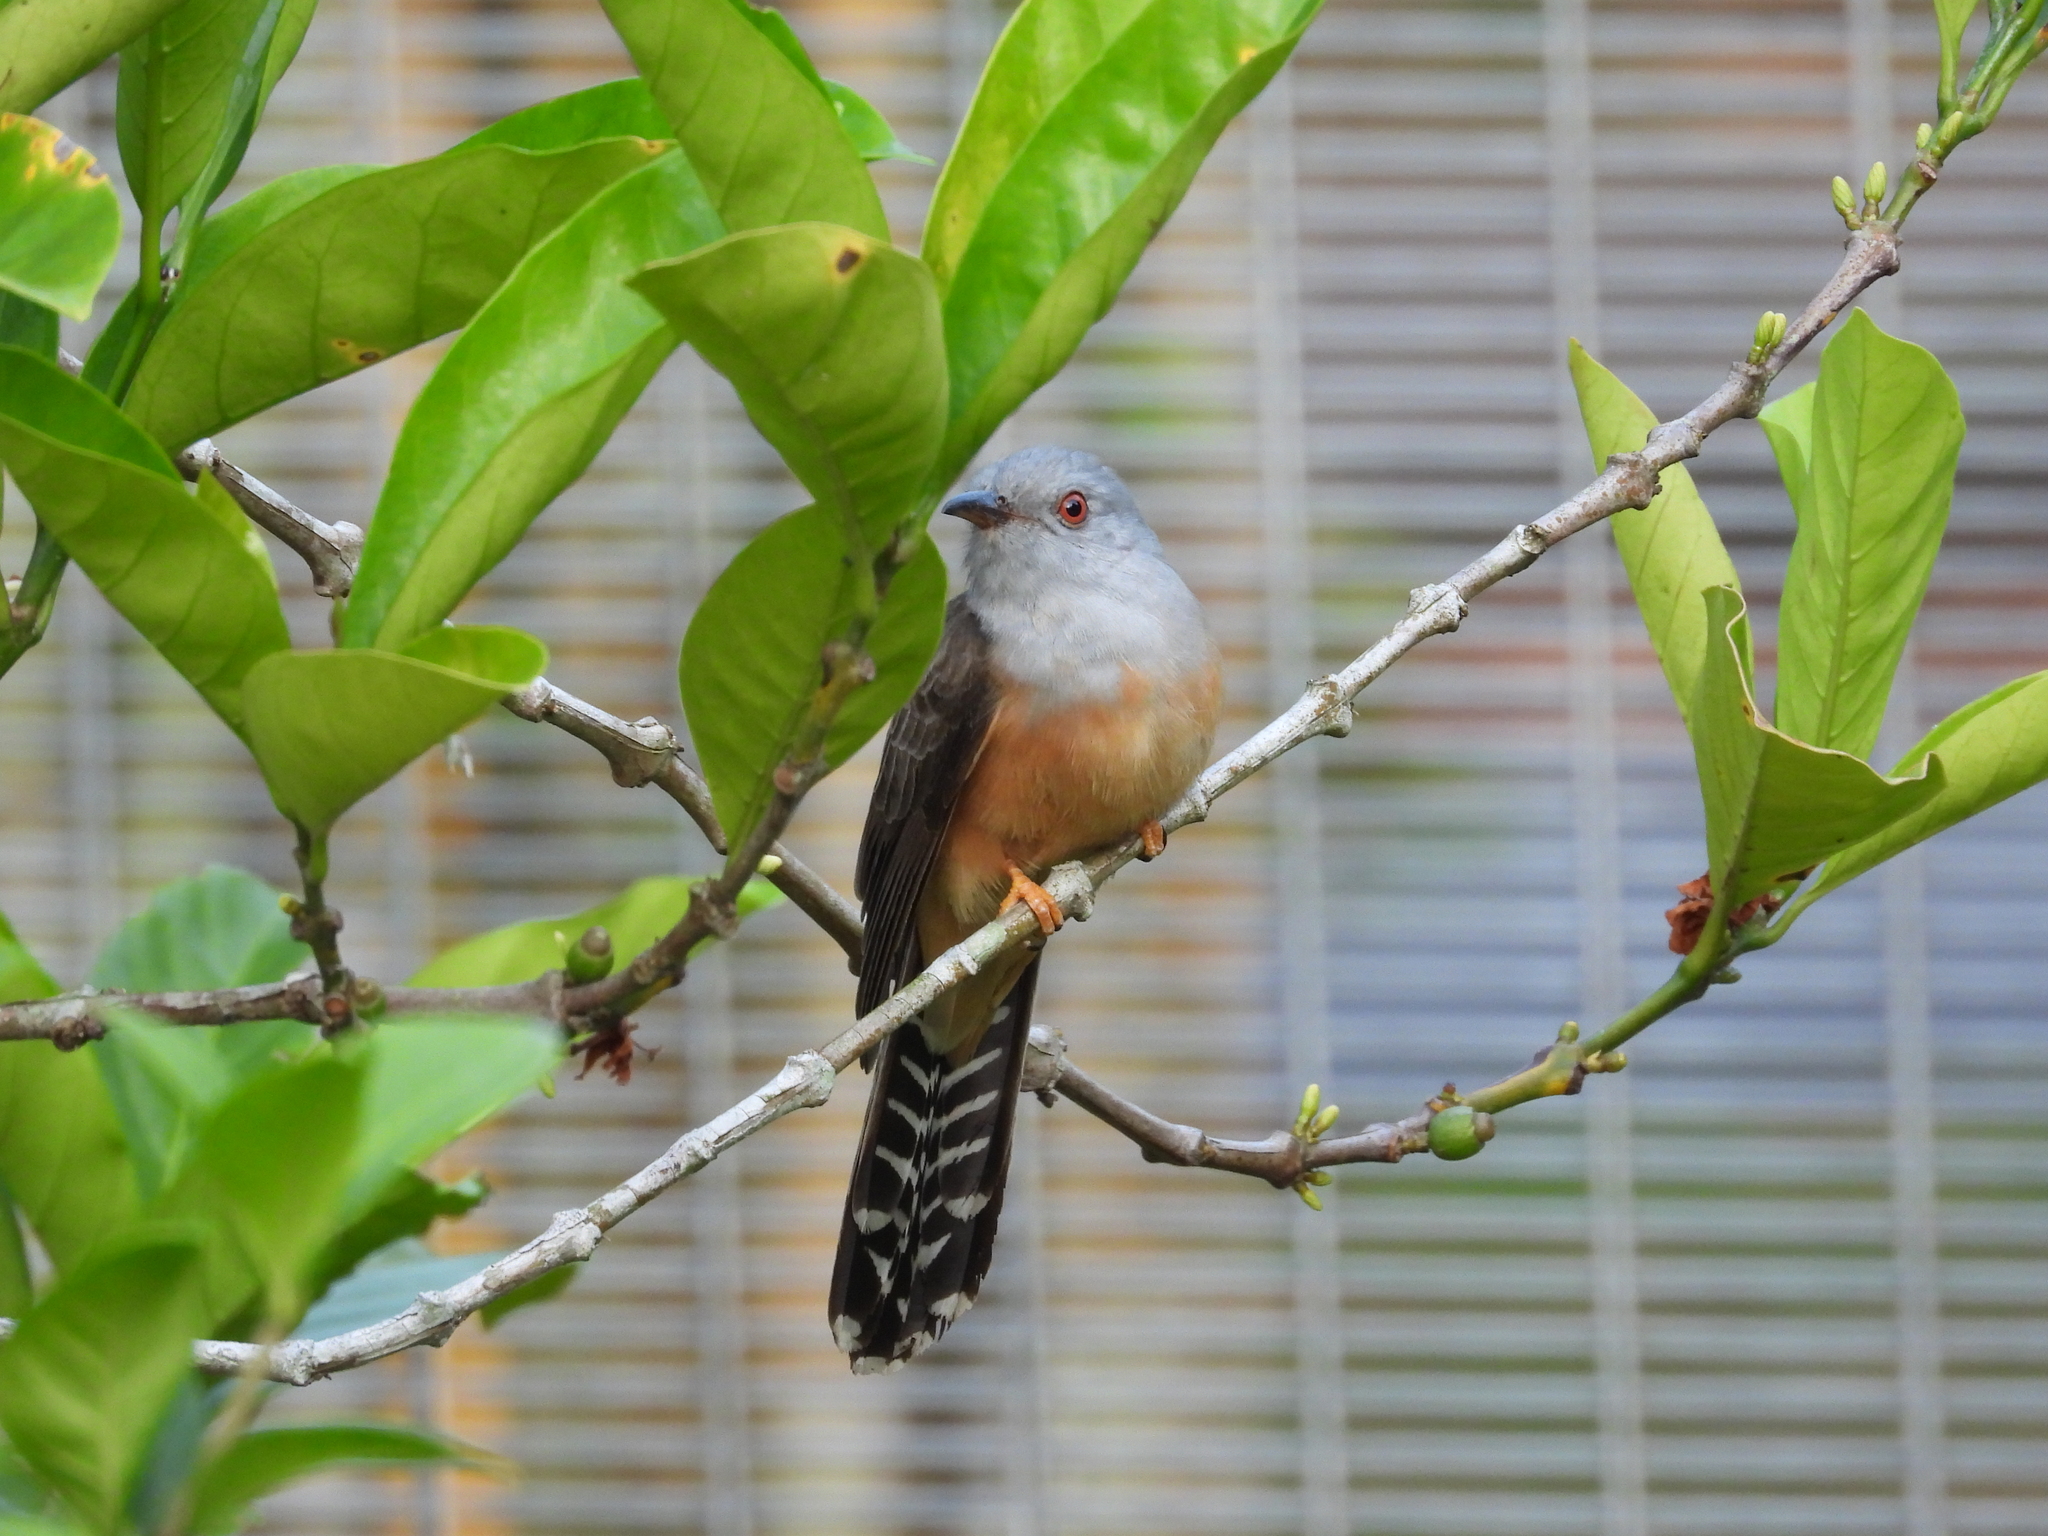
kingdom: Animalia
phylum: Chordata
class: Aves
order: Cuculiformes
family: Cuculidae
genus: Cacomantis
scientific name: Cacomantis merulinus
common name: Plaintive cuckoo
